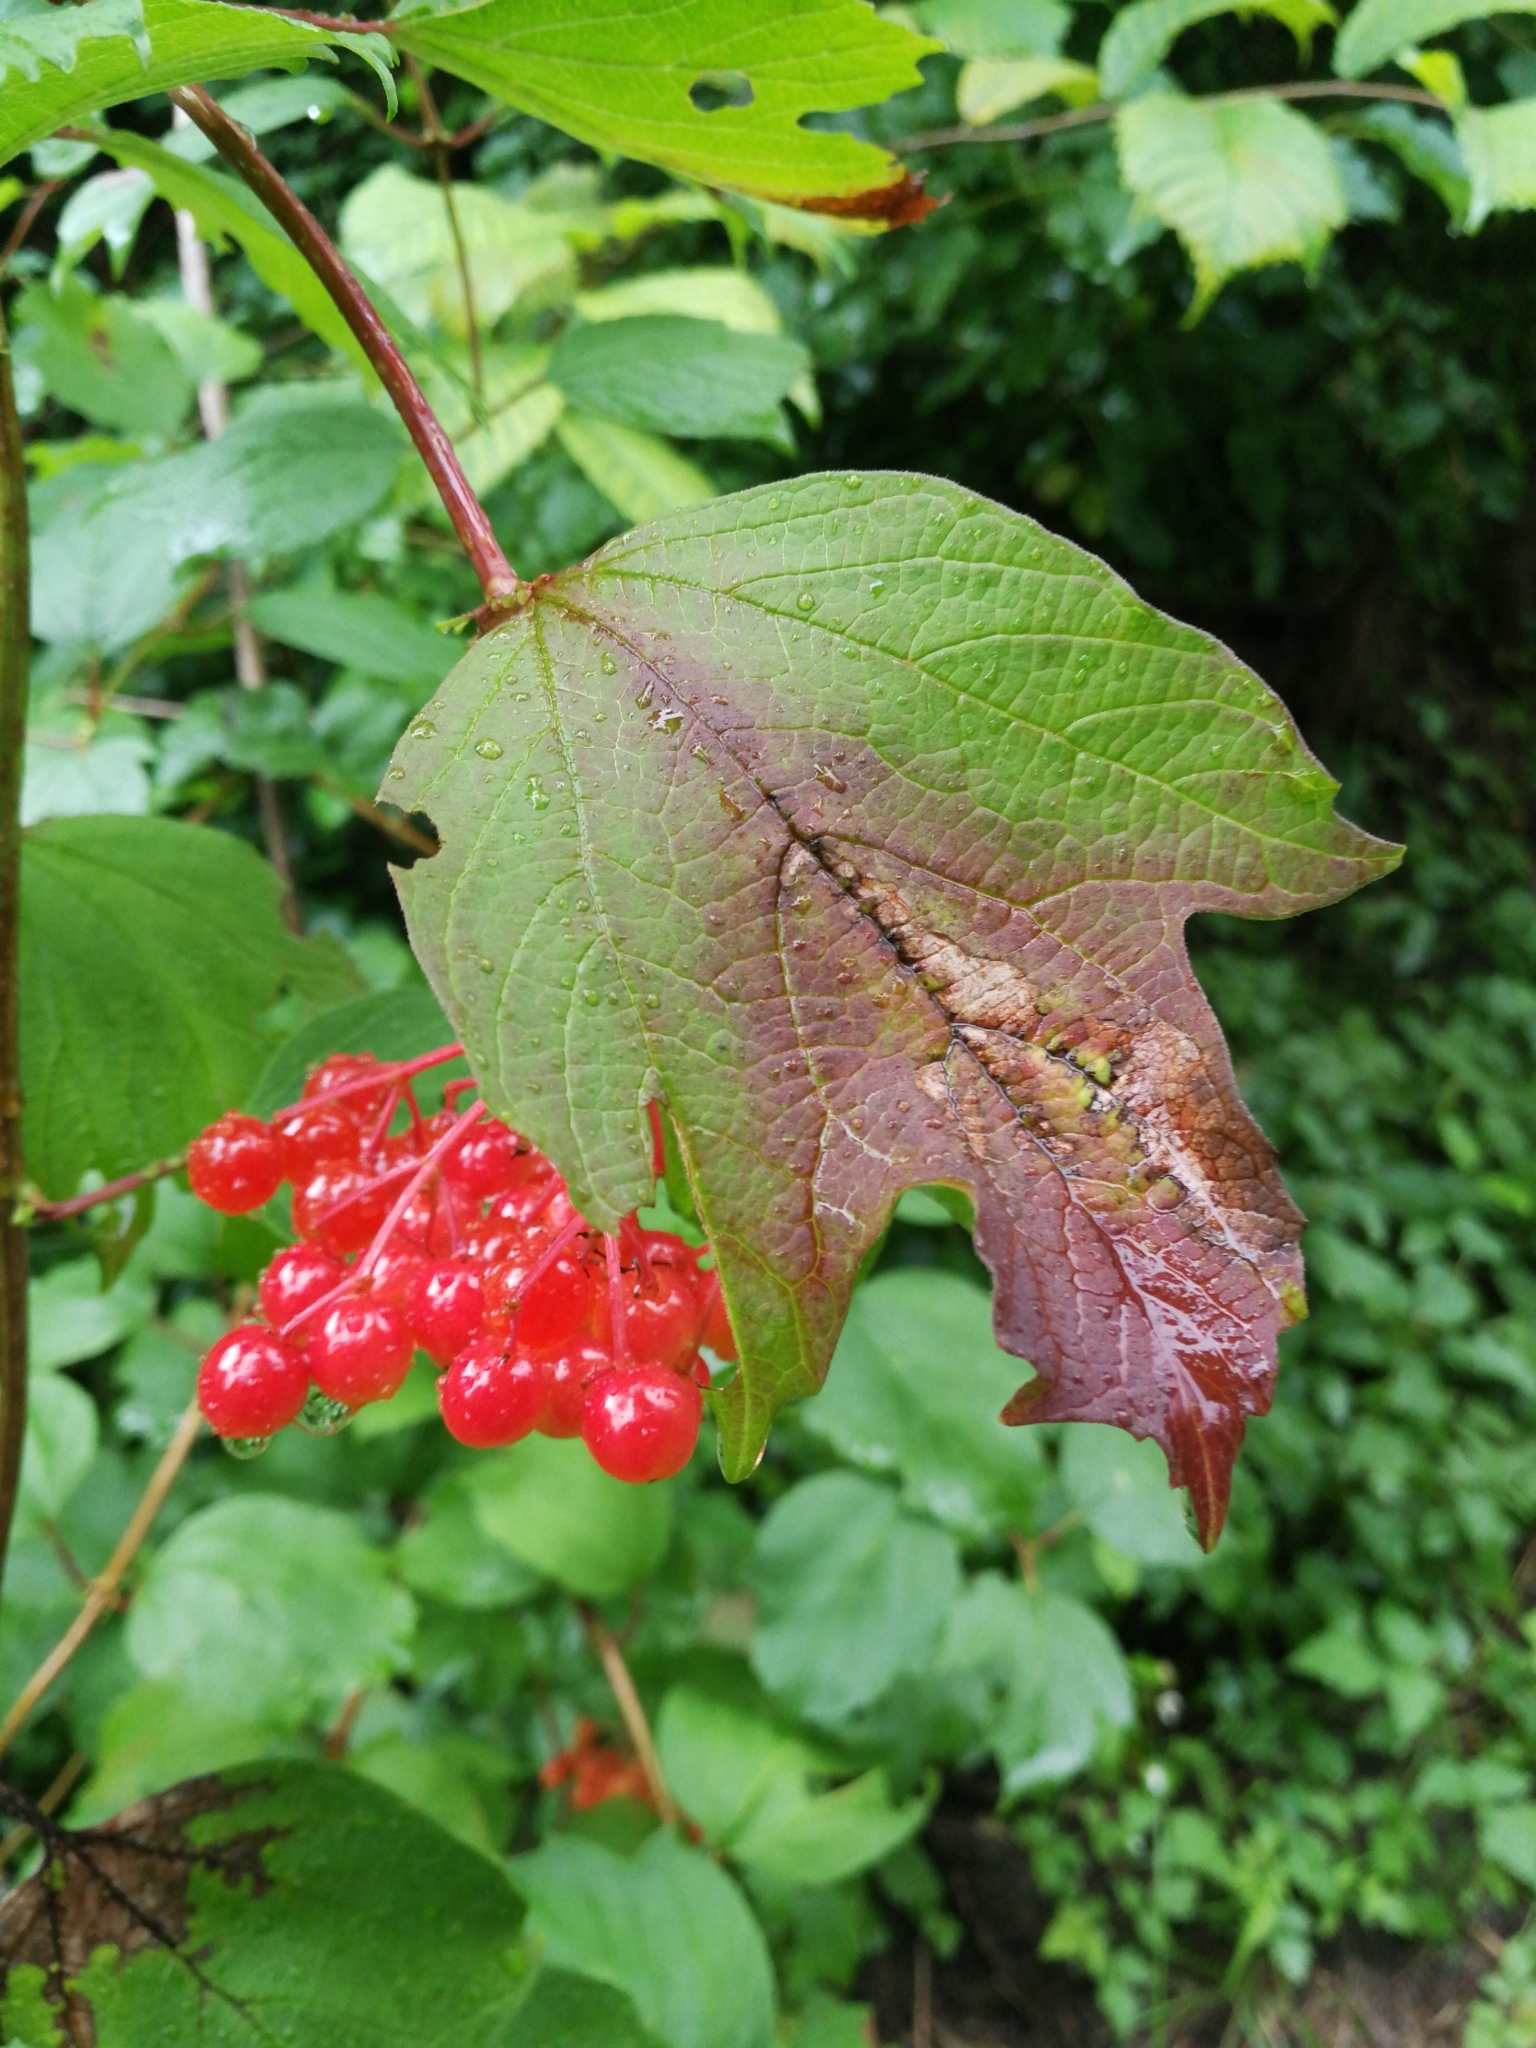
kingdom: Plantae
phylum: Tracheophyta
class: Magnoliopsida
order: Dipsacales
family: Viburnaceae
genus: Viburnum
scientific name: Viburnum opulus
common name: Guelder-rose
